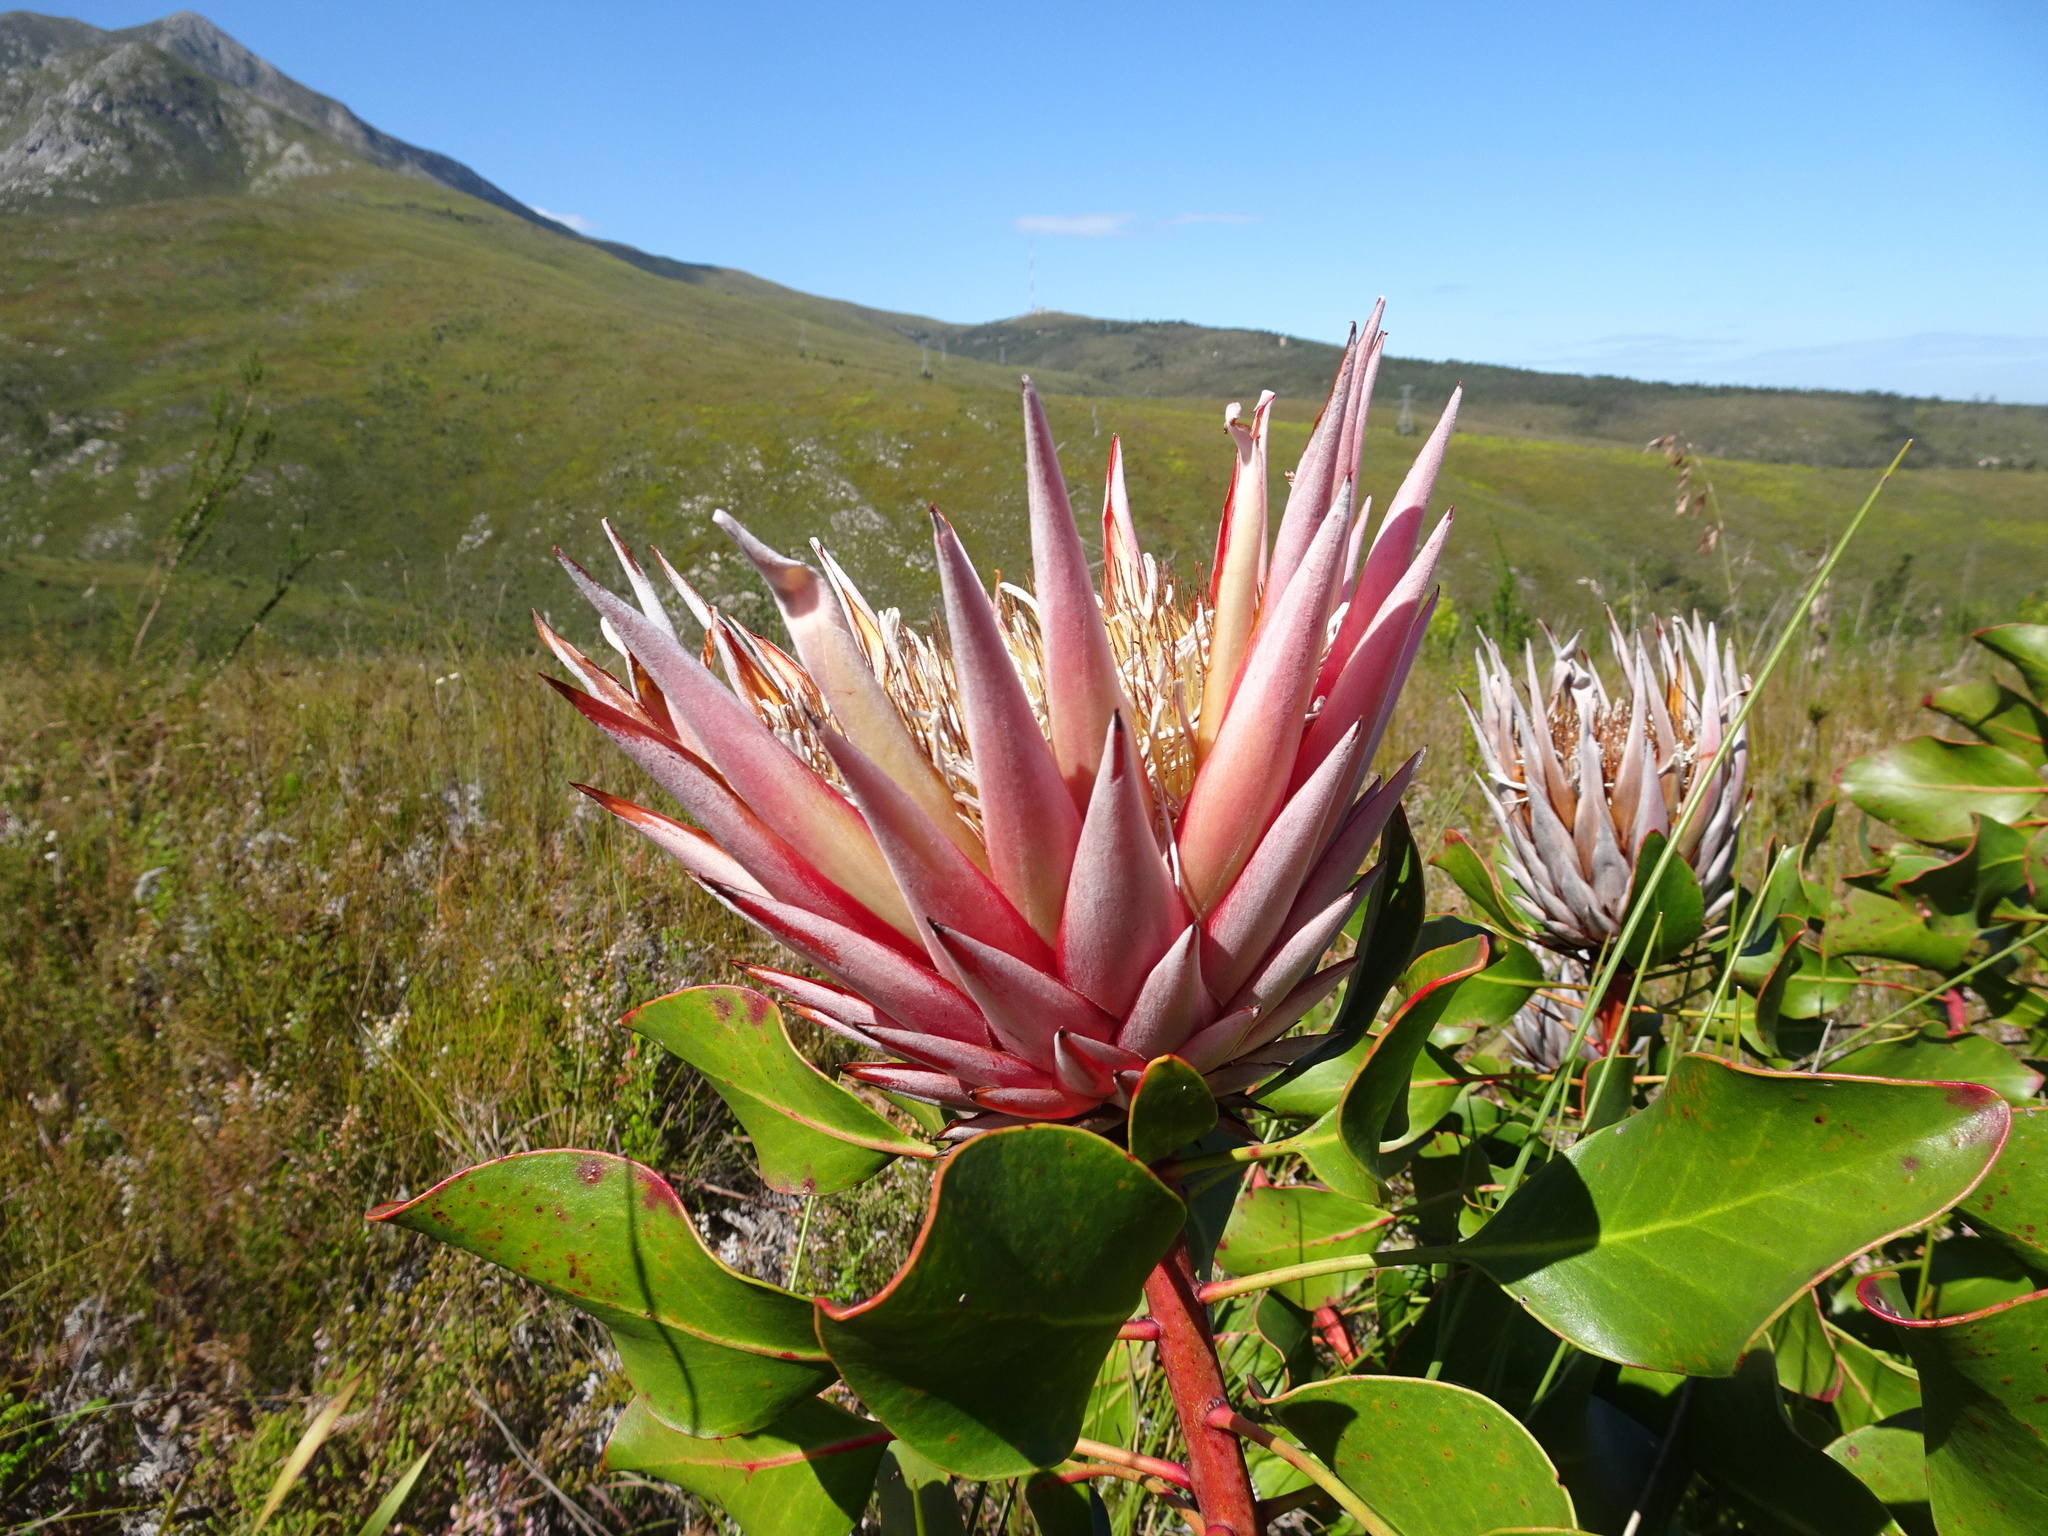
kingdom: Plantae
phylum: Tracheophyta
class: Magnoliopsida
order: Proteales
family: Proteaceae
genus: Protea
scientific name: Protea cynaroides
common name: King protea
